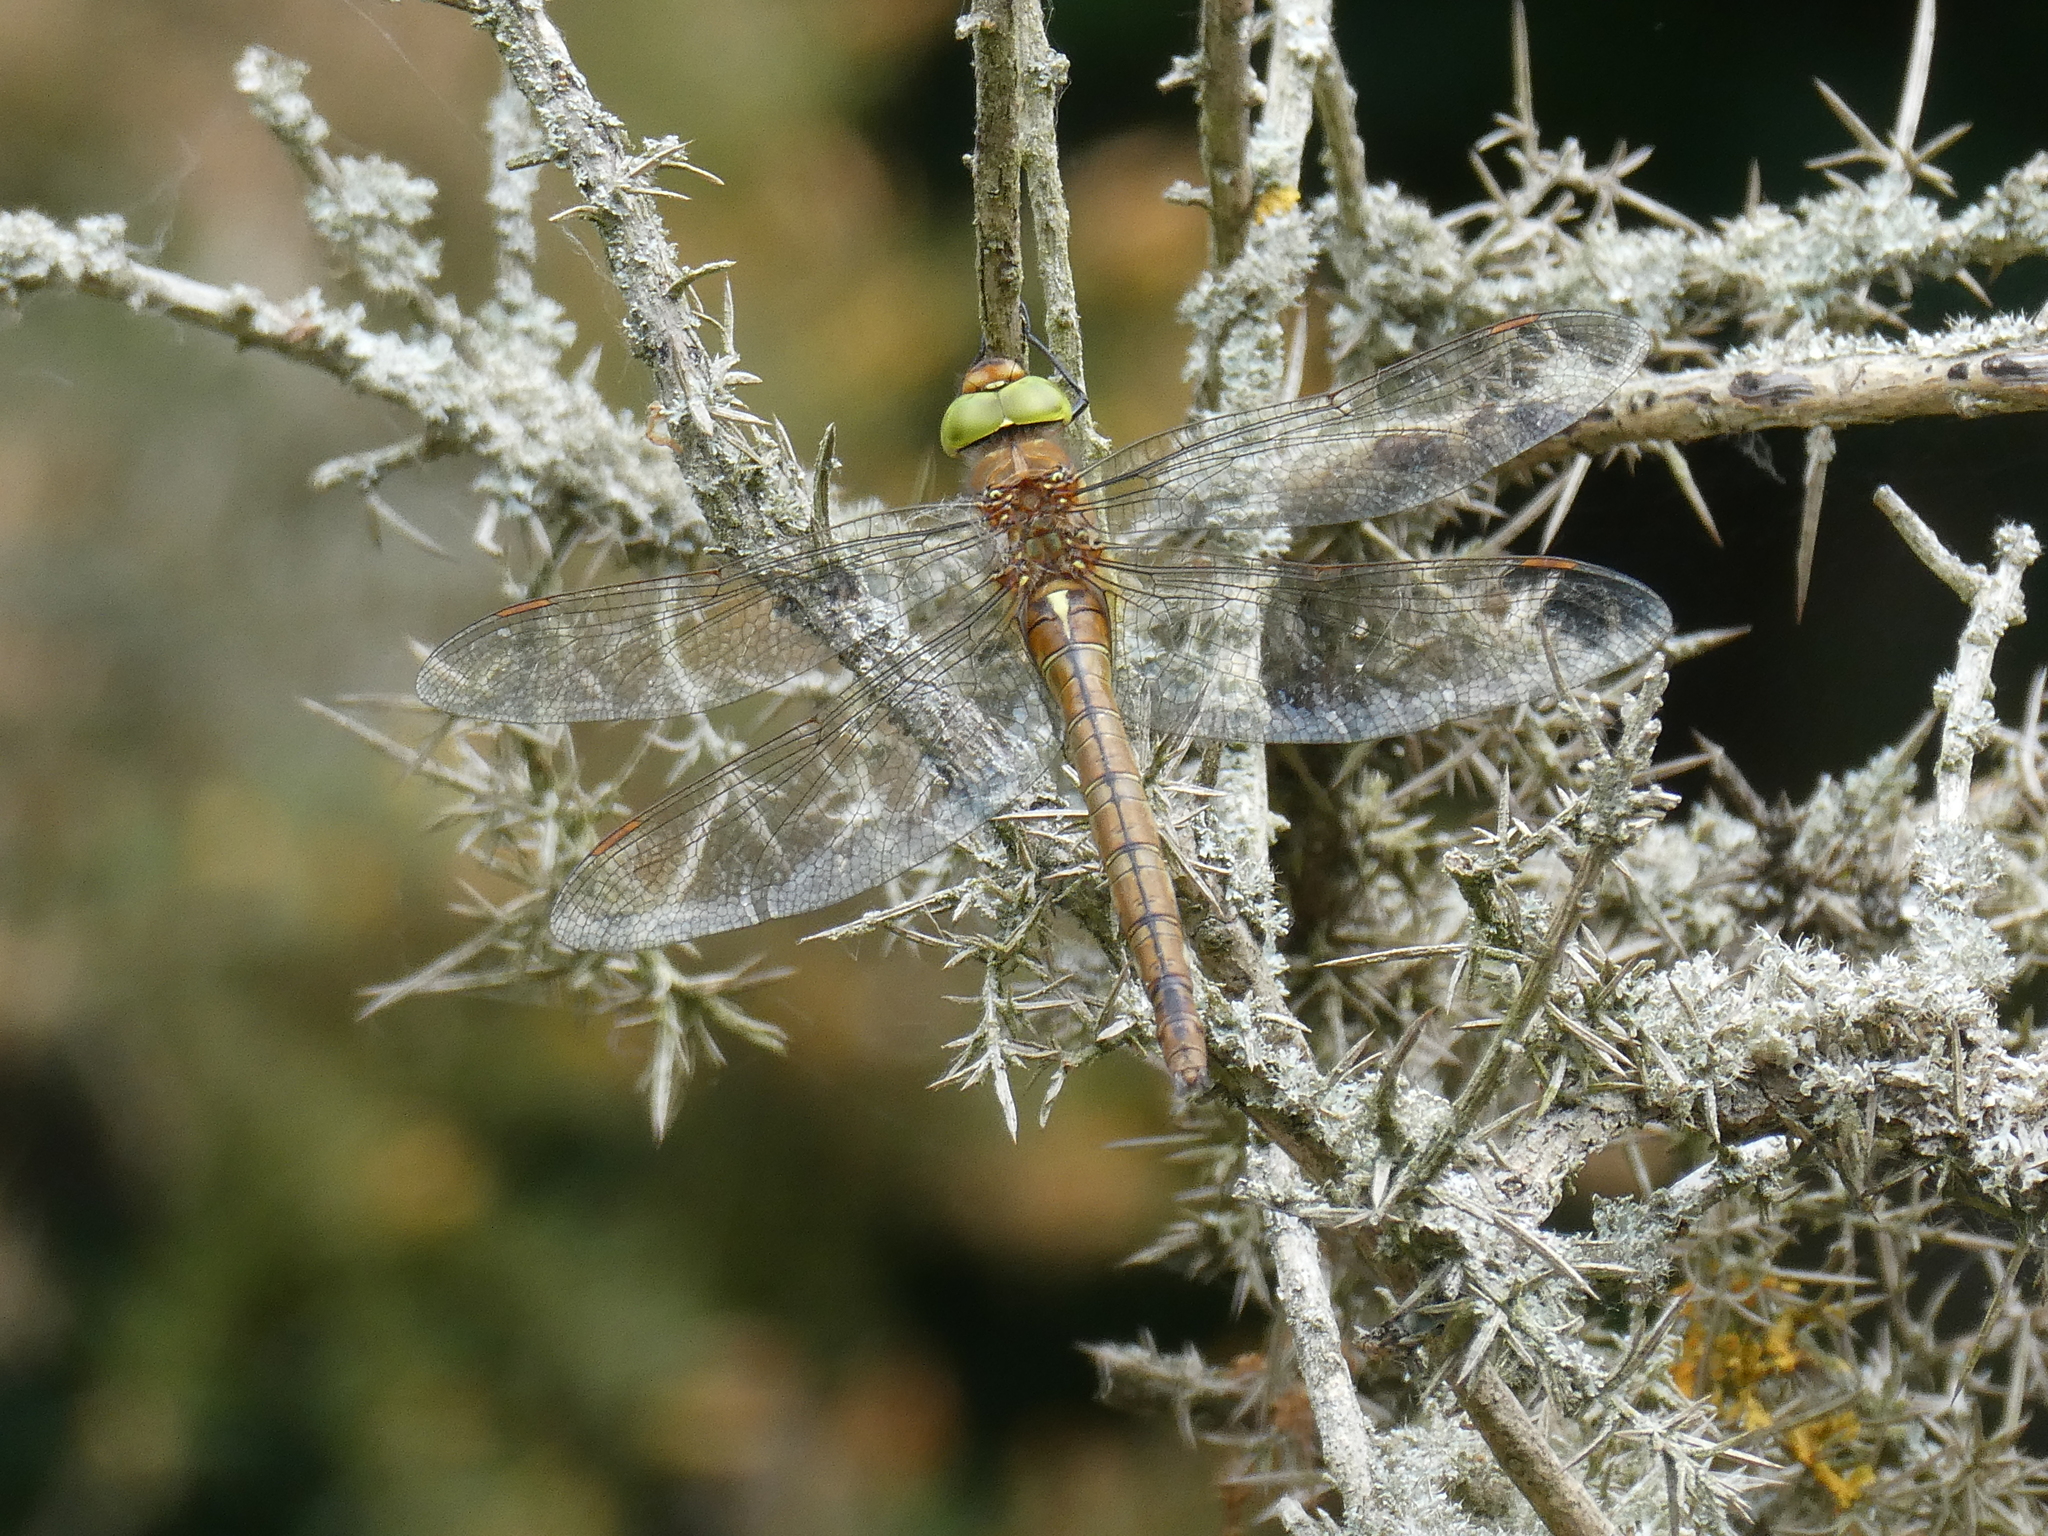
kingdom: Animalia
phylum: Arthropoda
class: Insecta
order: Odonata
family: Aeshnidae
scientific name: Aeshnidae
